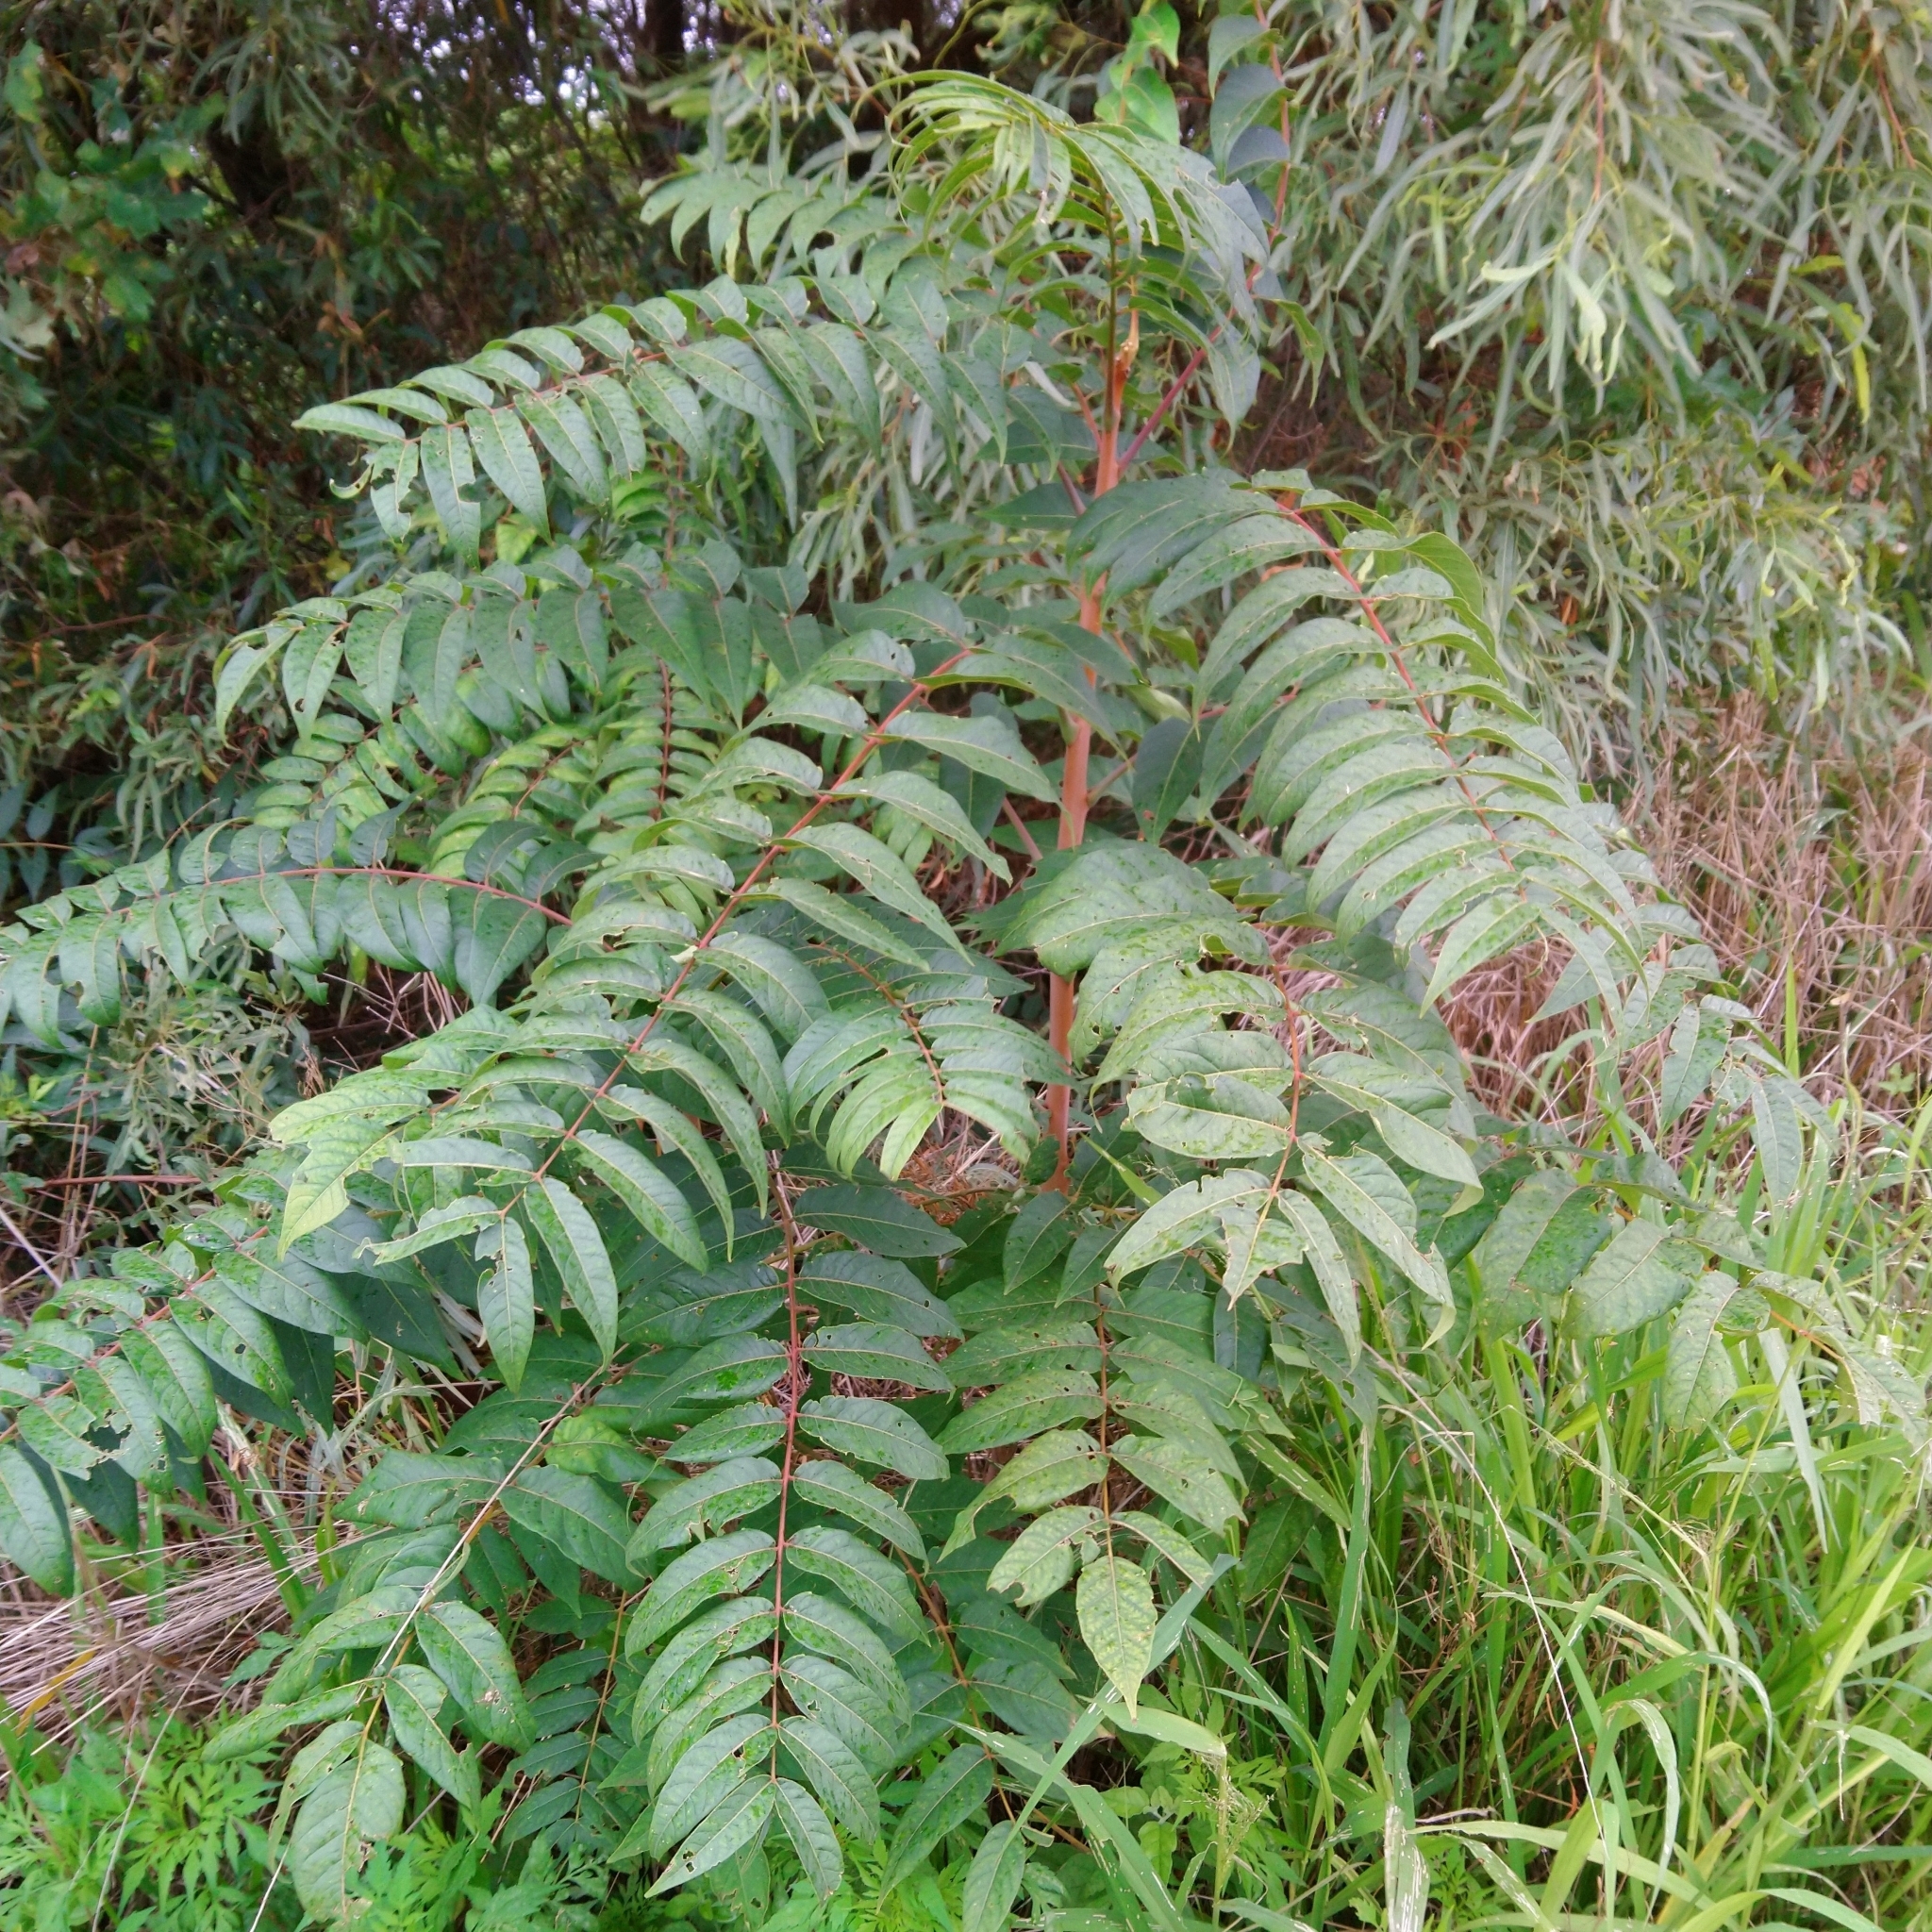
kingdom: Plantae
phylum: Tracheophyta
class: Magnoliopsida
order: Sapindales
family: Simaroubaceae
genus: Ailanthus
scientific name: Ailanthus altissima
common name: Tree-of-heaven
